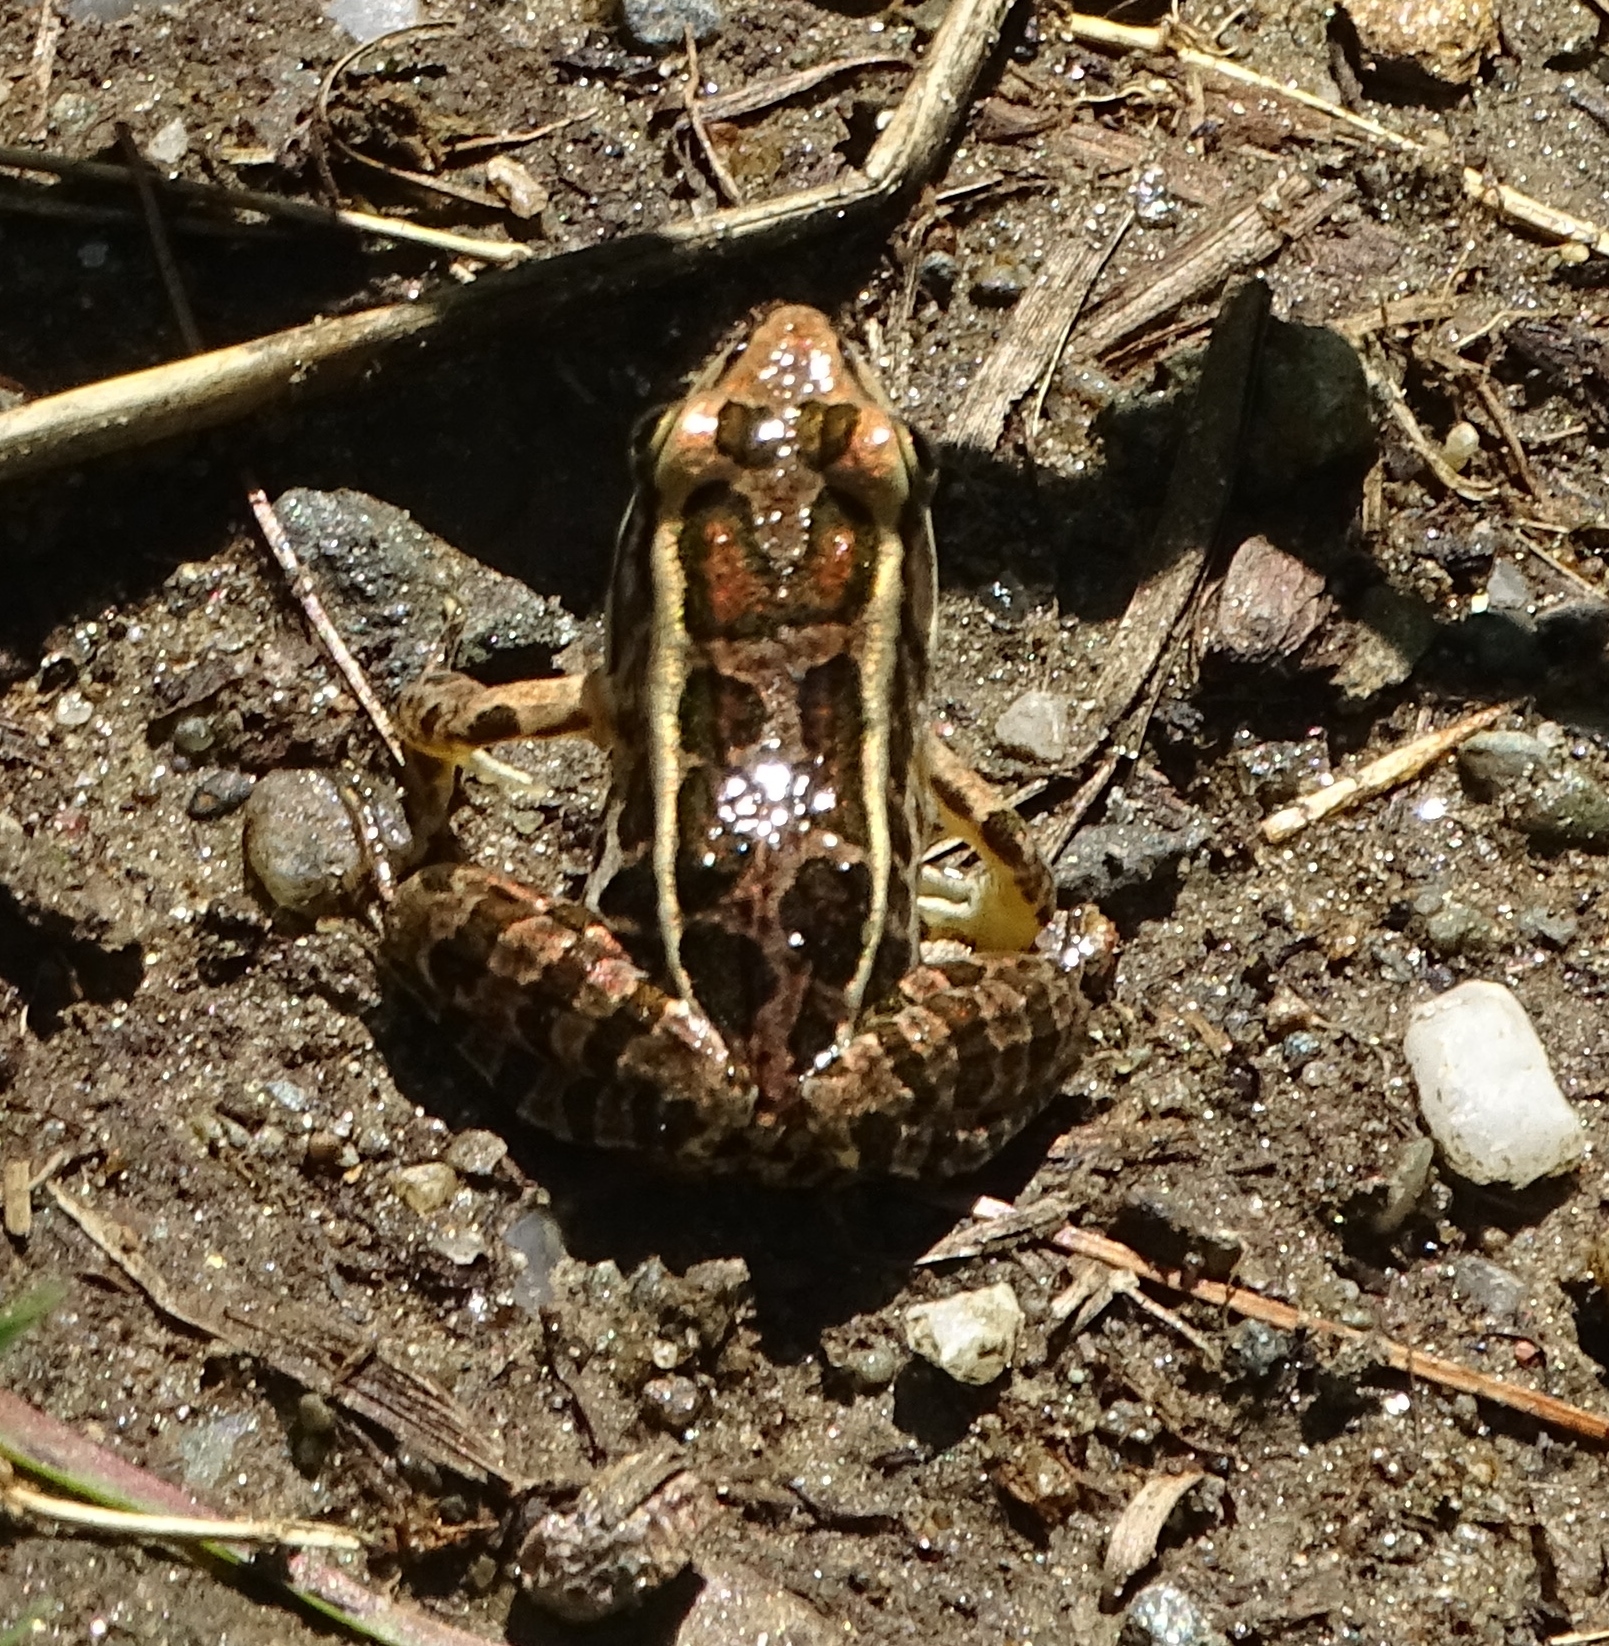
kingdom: Animalia
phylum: Chordata
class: Amphibia
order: Anura
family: Ranidae
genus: Lithobates
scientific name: Lithobates palustris
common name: Pickerel frog
